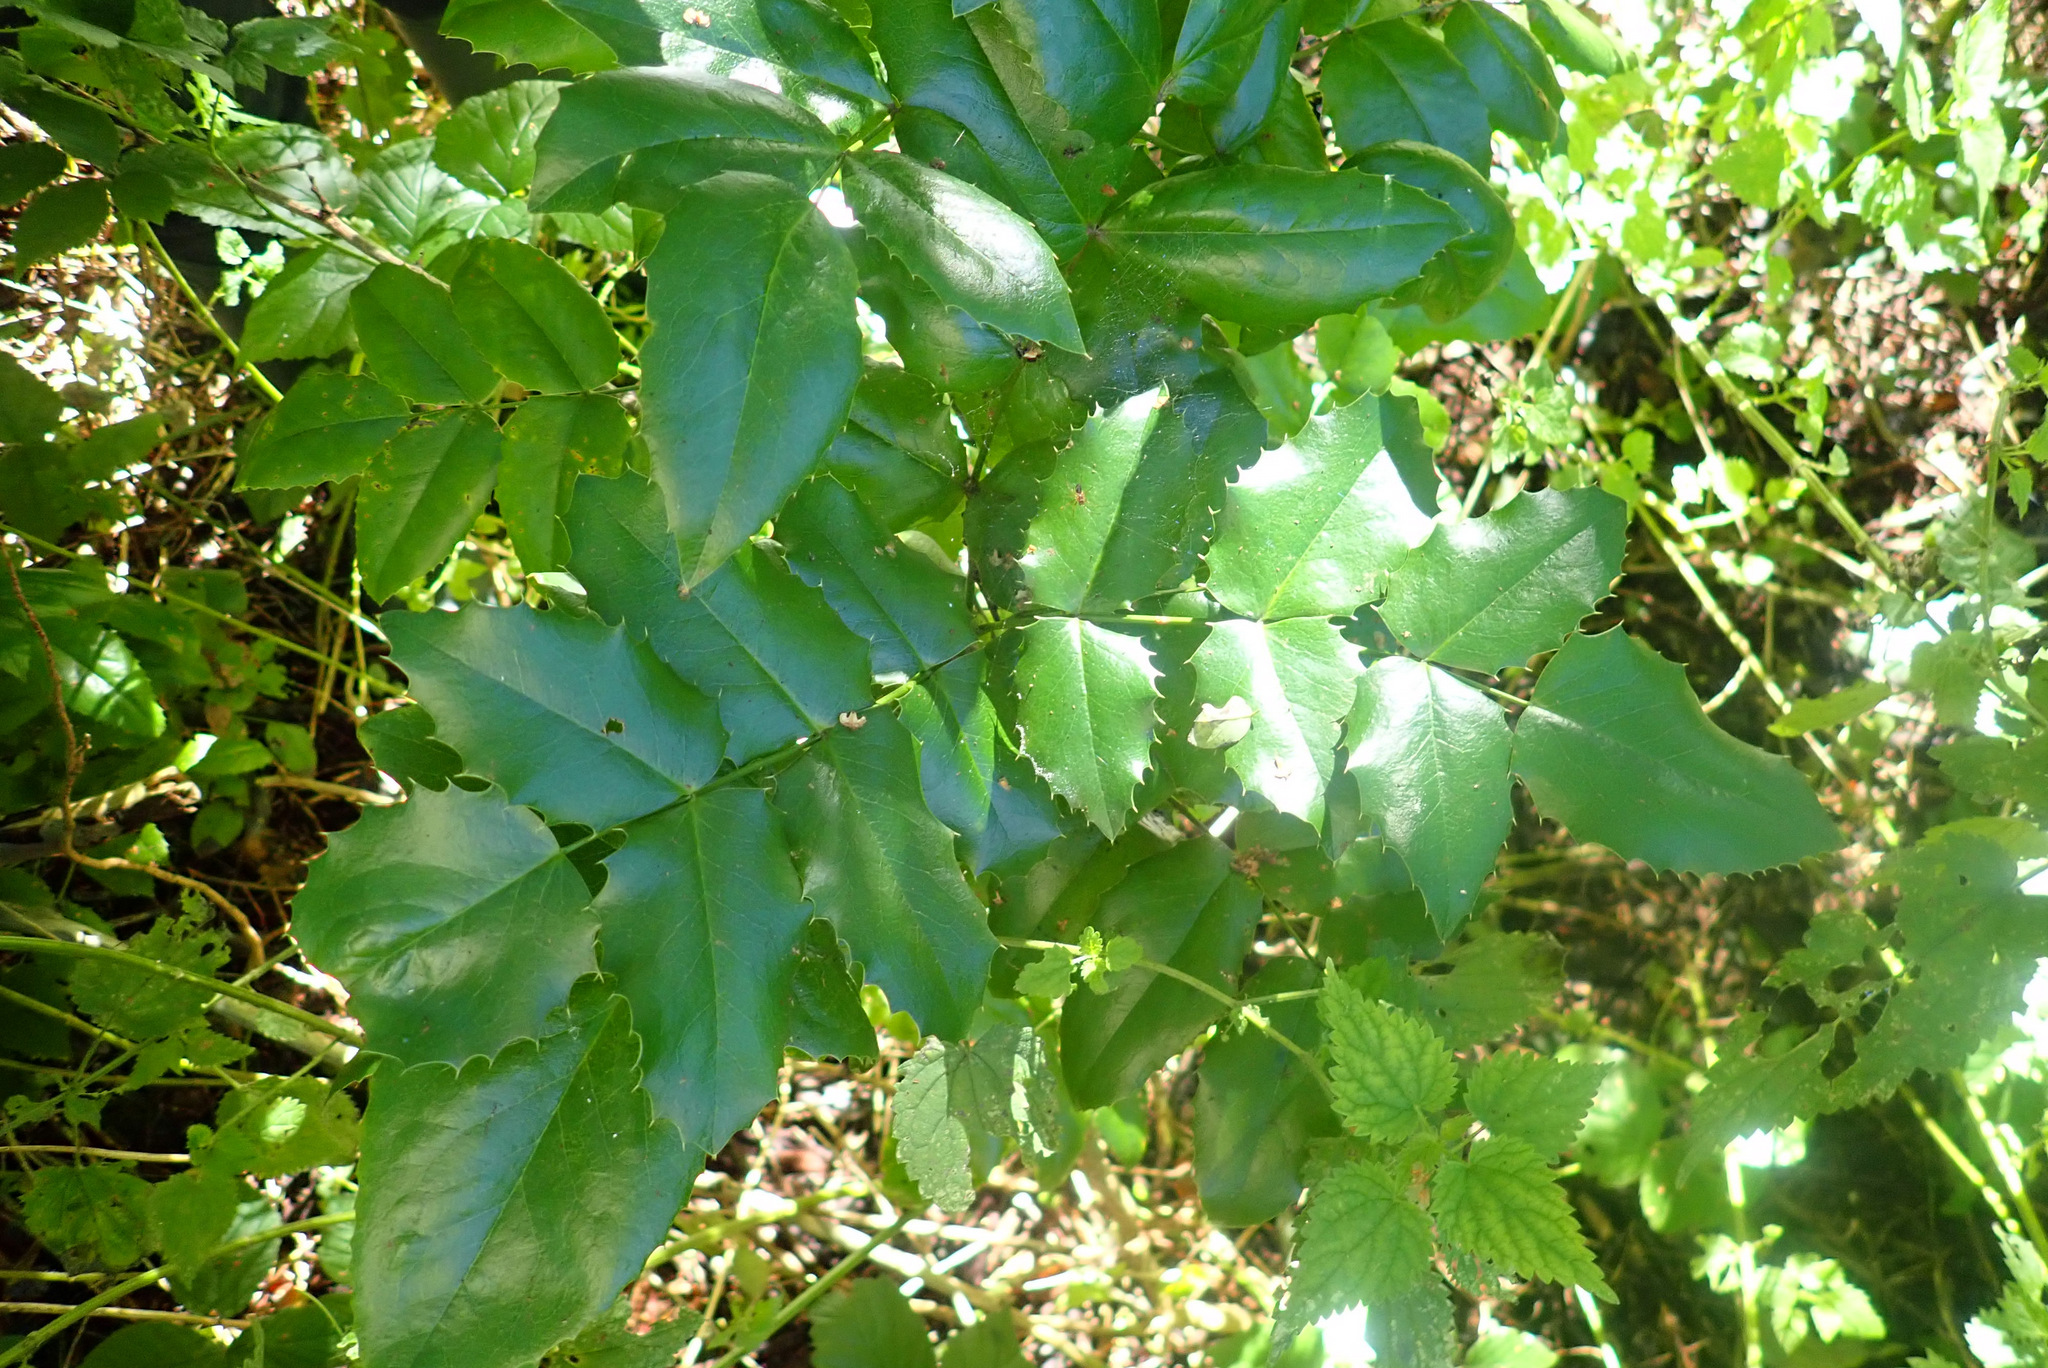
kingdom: Plantae
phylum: Tracheophyta
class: Magnoliopsida
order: Ranunculales
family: Berberidaceae
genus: Mahonia
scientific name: Mahonia aquifolium
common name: Oregon-grape
